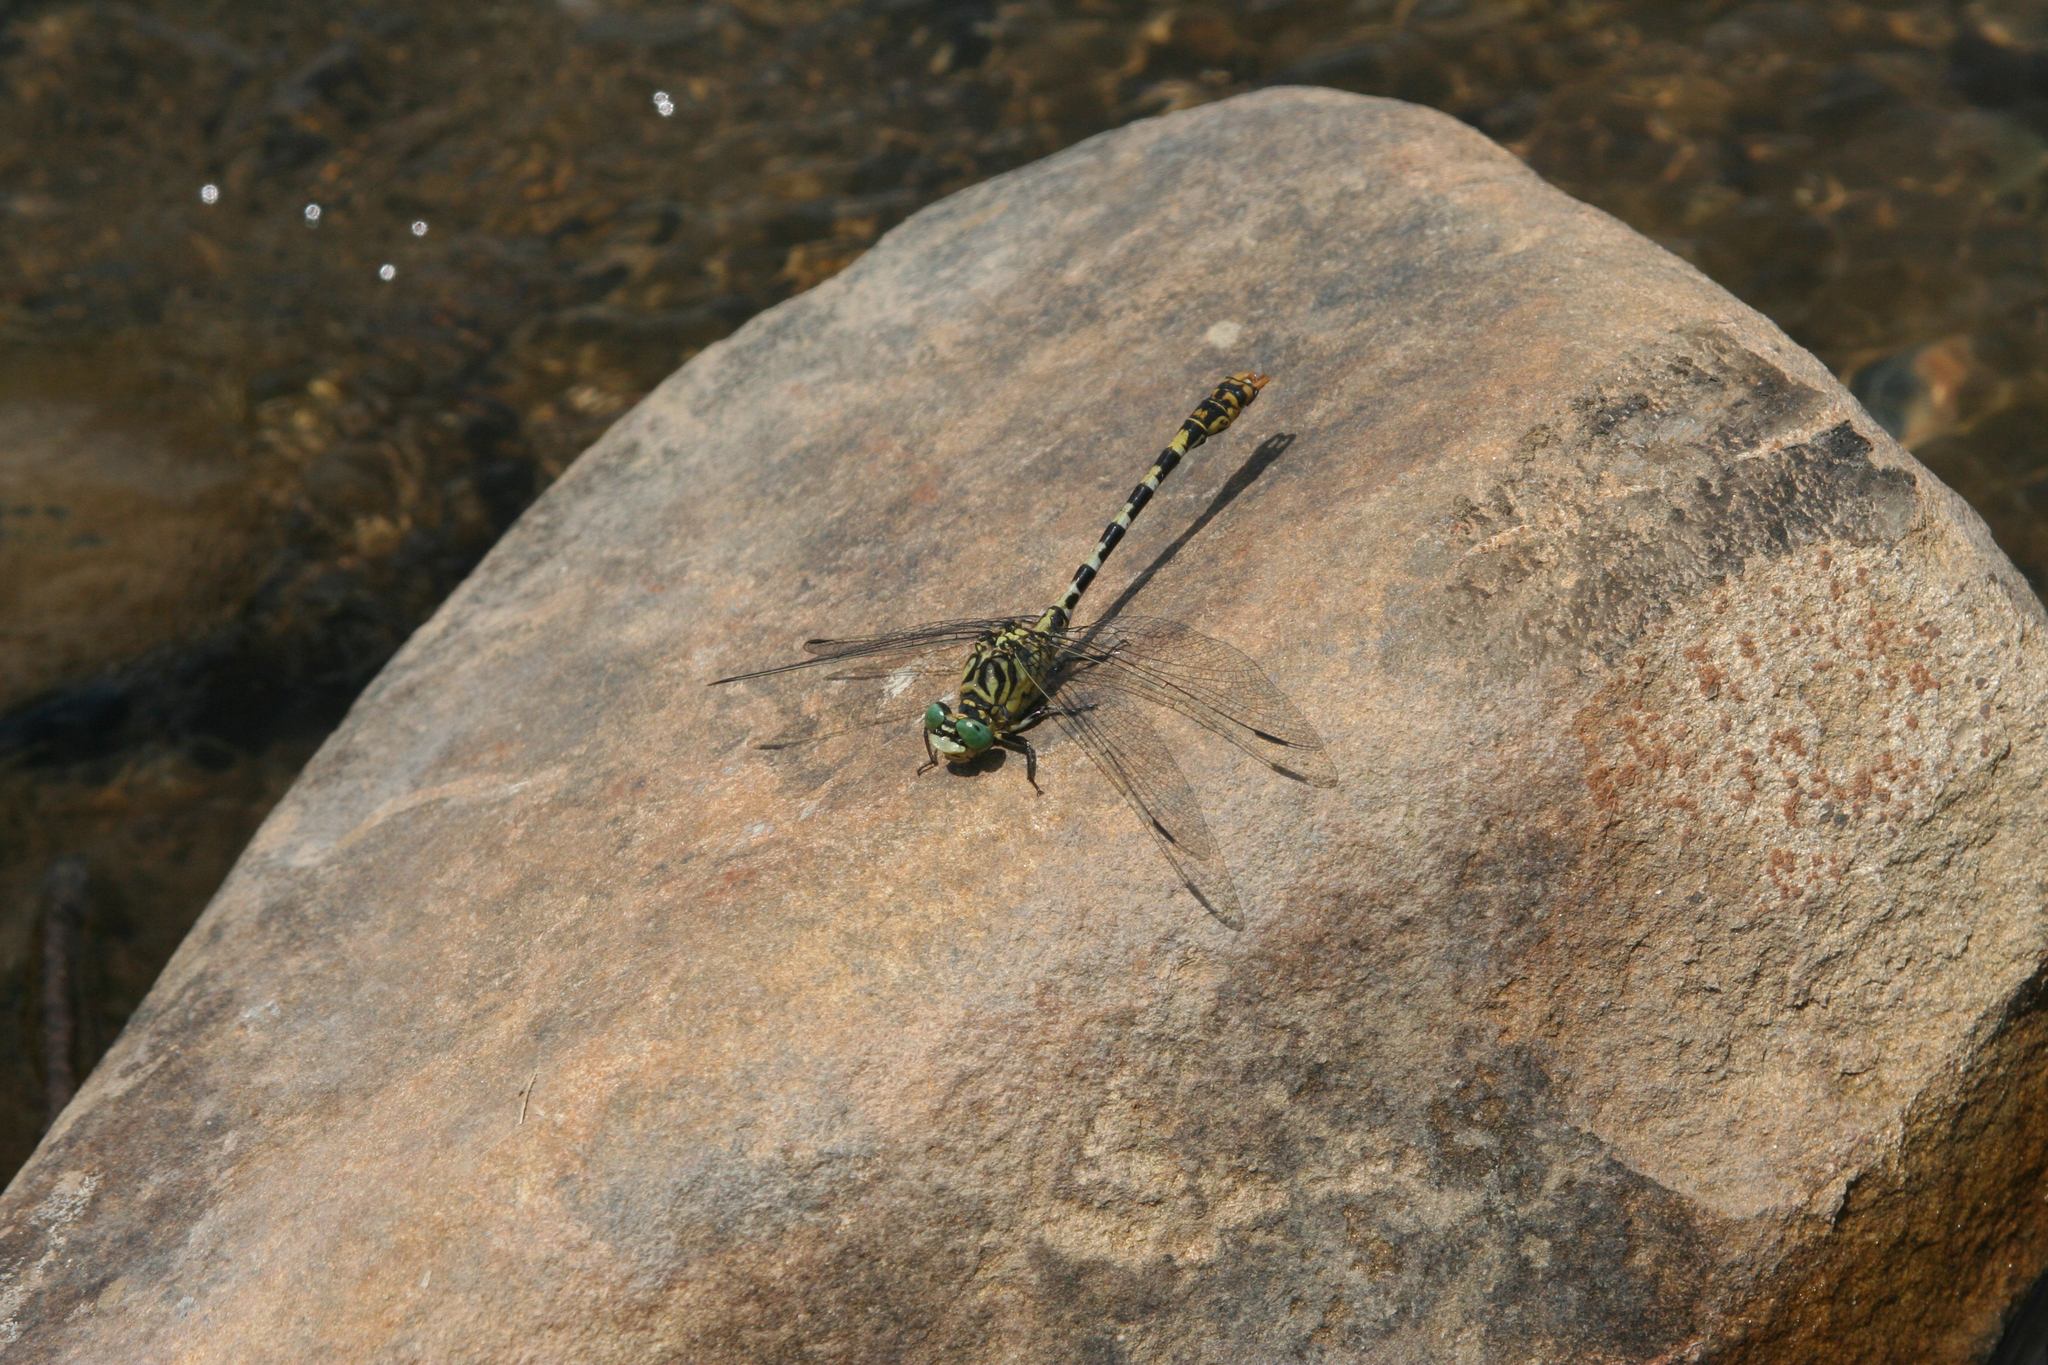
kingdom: Animalia
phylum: Arthropoda
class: Insecta
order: Odonata
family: Gomphidae
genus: Onychogomphus
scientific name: Onychogomphus forcipatus
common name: Small pincertail
